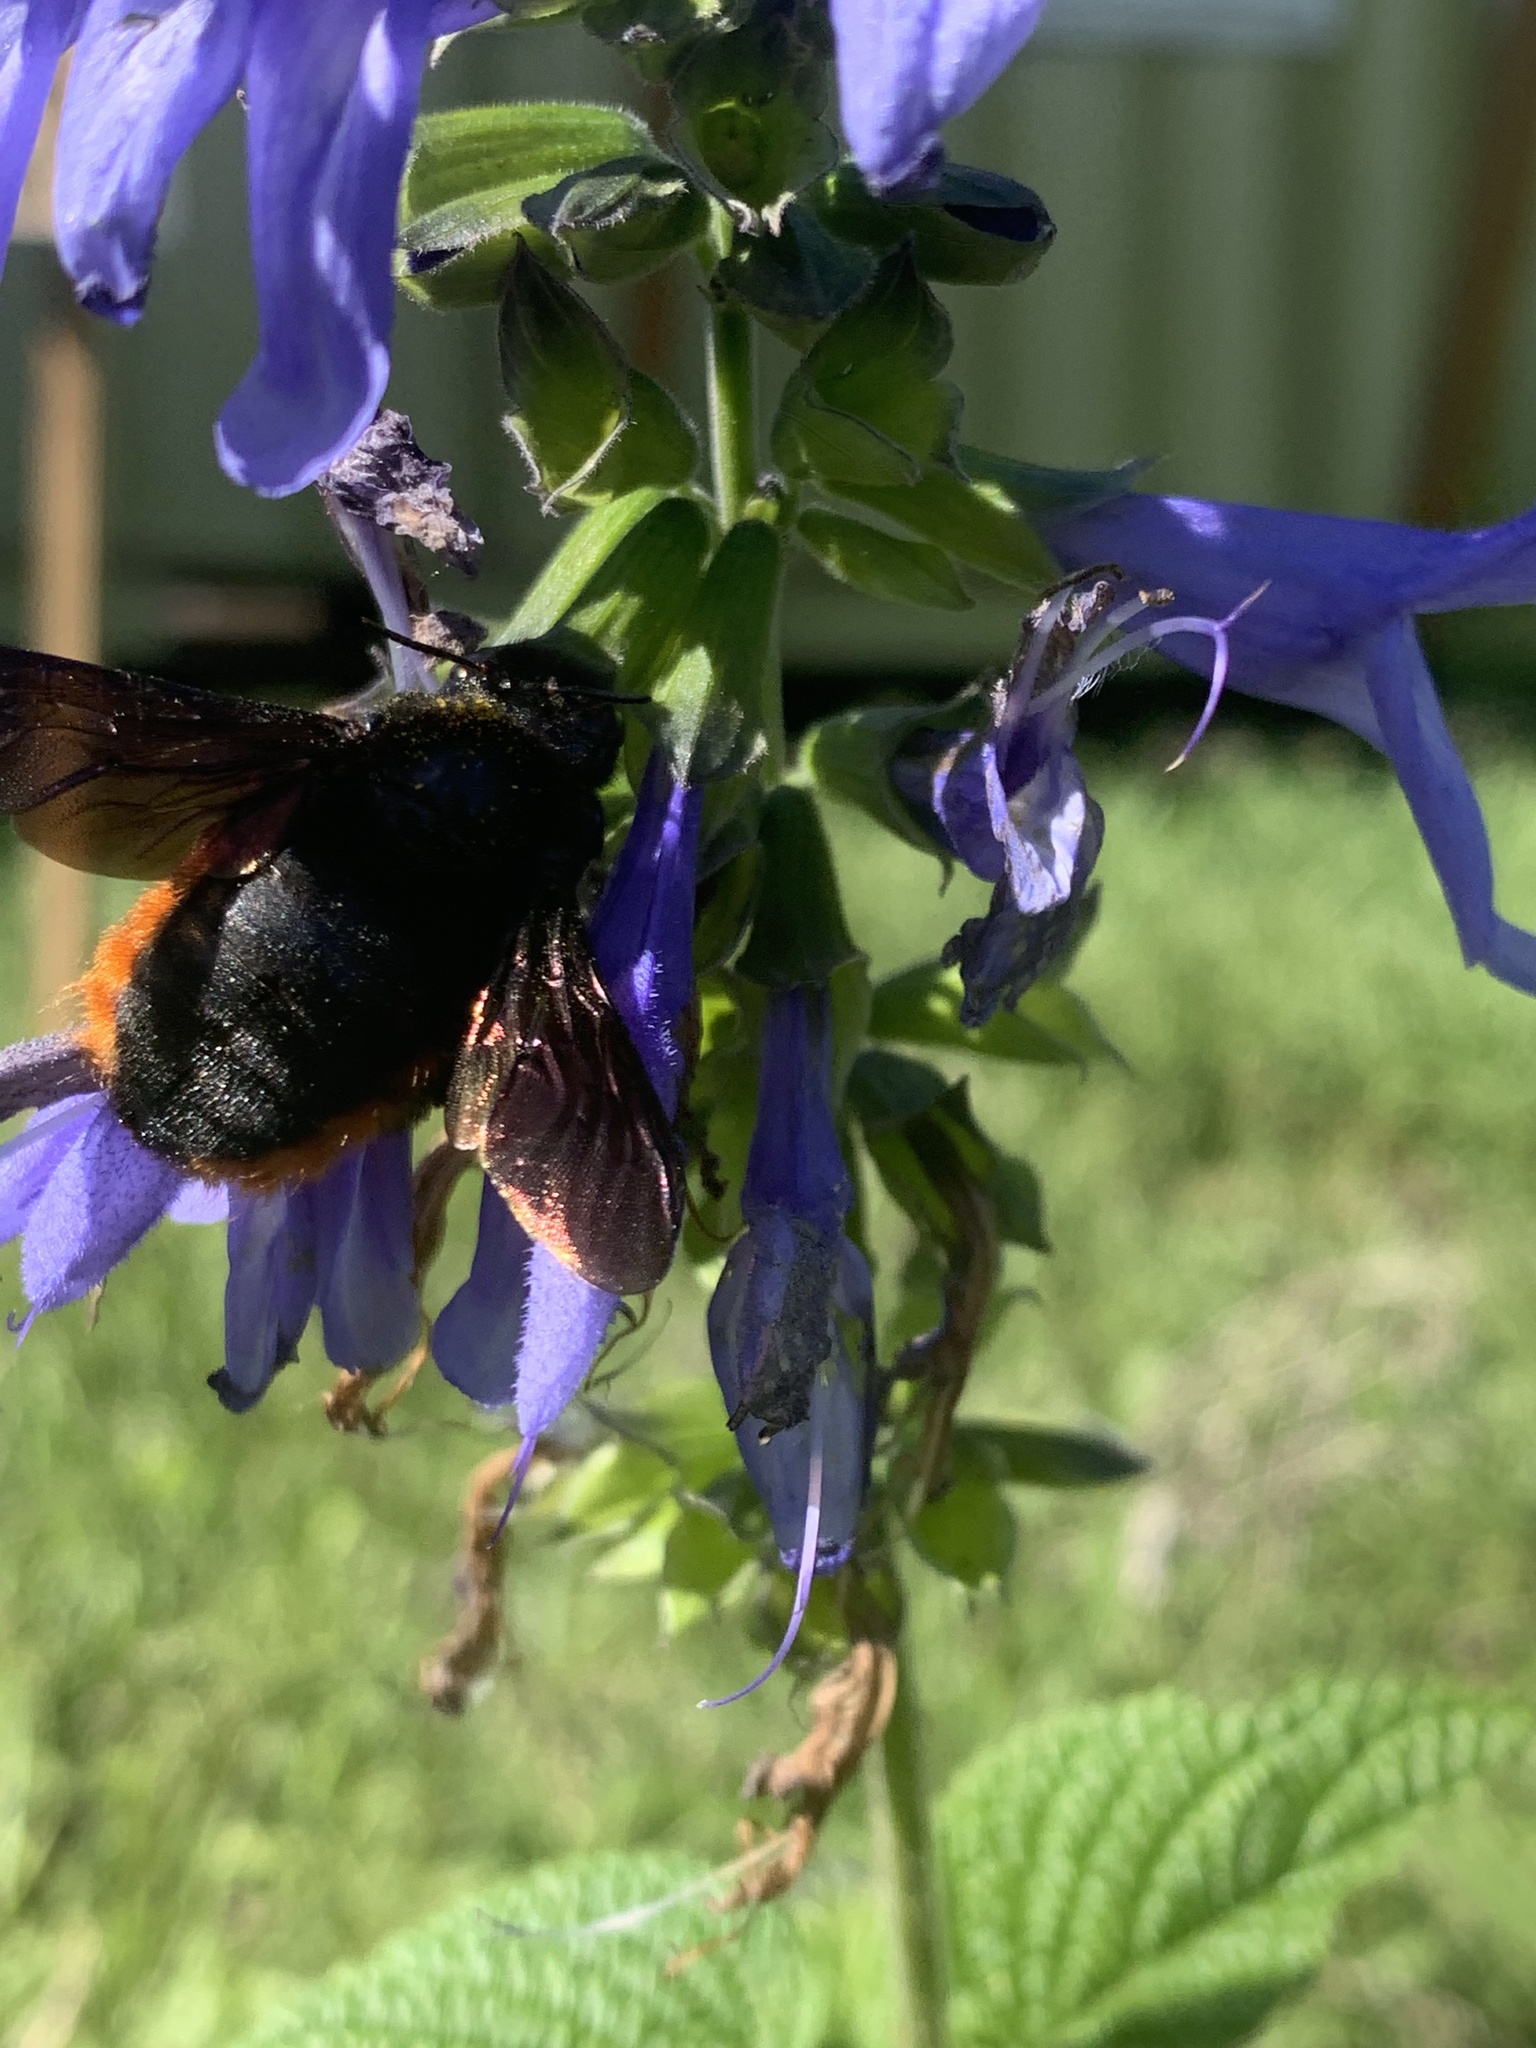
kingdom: Animalia
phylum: Arthropoda
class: Insecta
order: Hymenoptera
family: Apidae
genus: Xylocopa
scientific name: Xylocopa augusti
